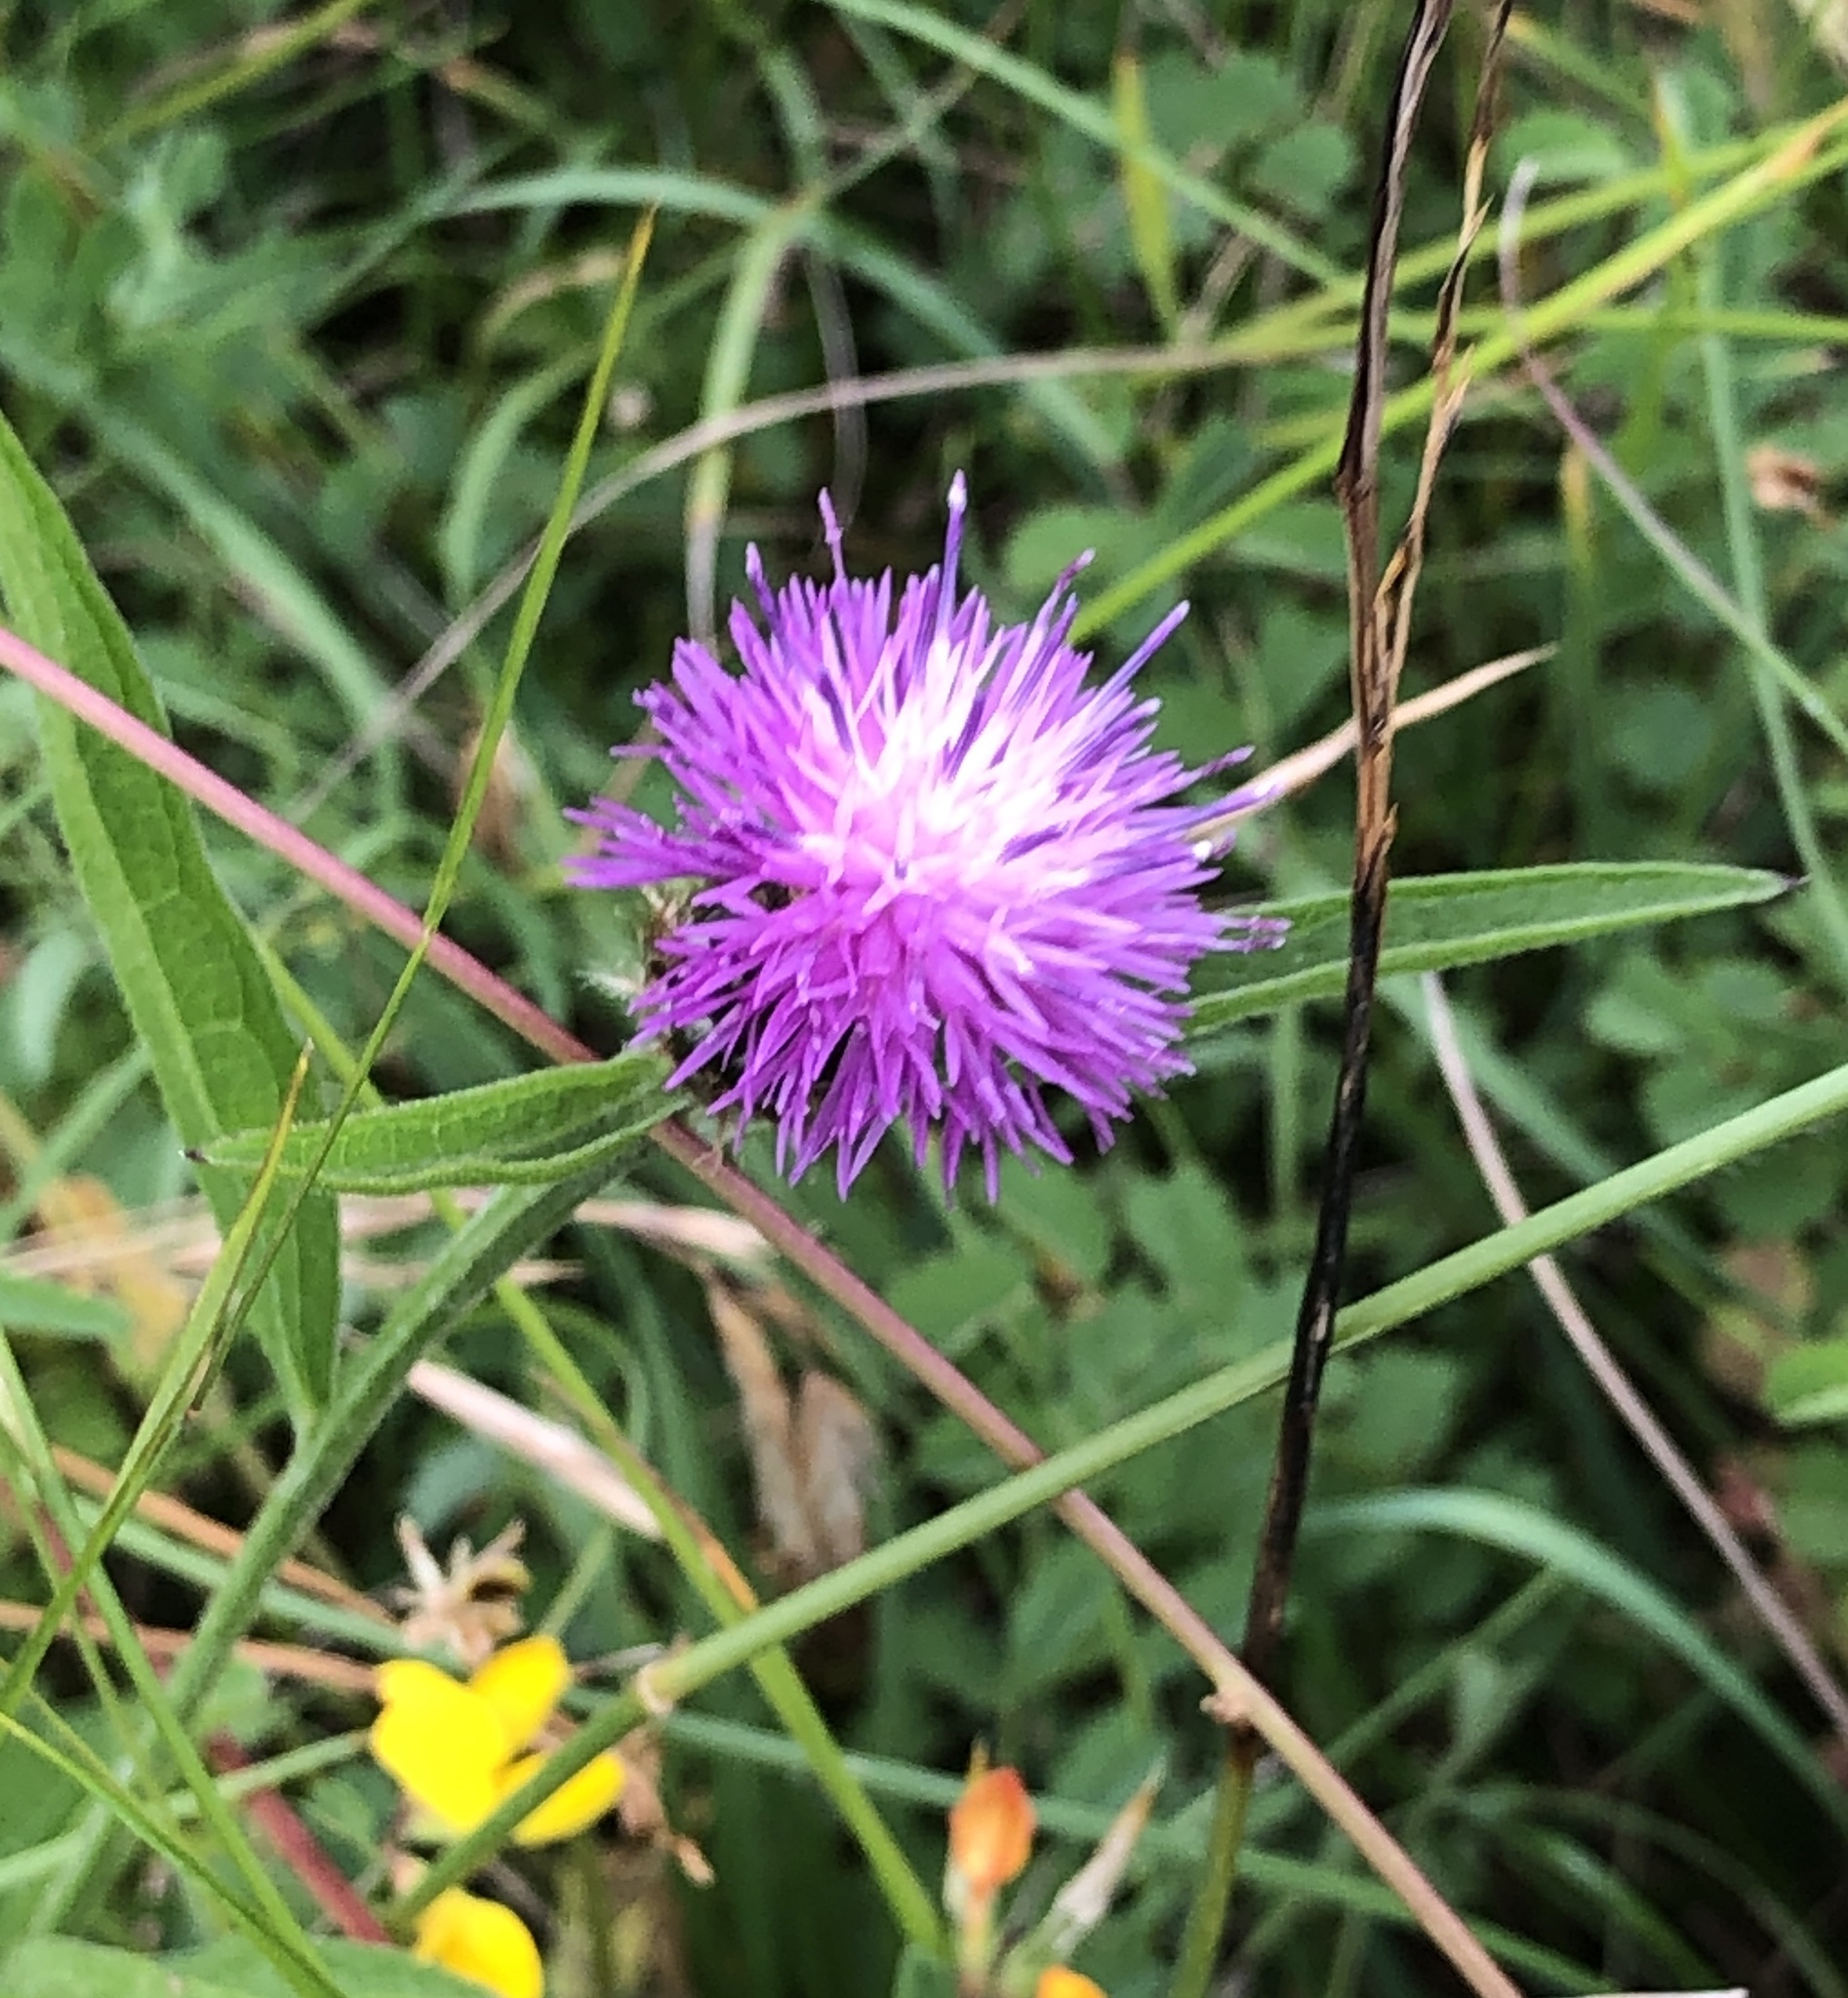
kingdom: Plantae
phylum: Tracheophyta
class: Magnoliopsida
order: Asterales
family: Asteraceae
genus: Centaurea
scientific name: Centaurea nigra
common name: Lesser knapweed
